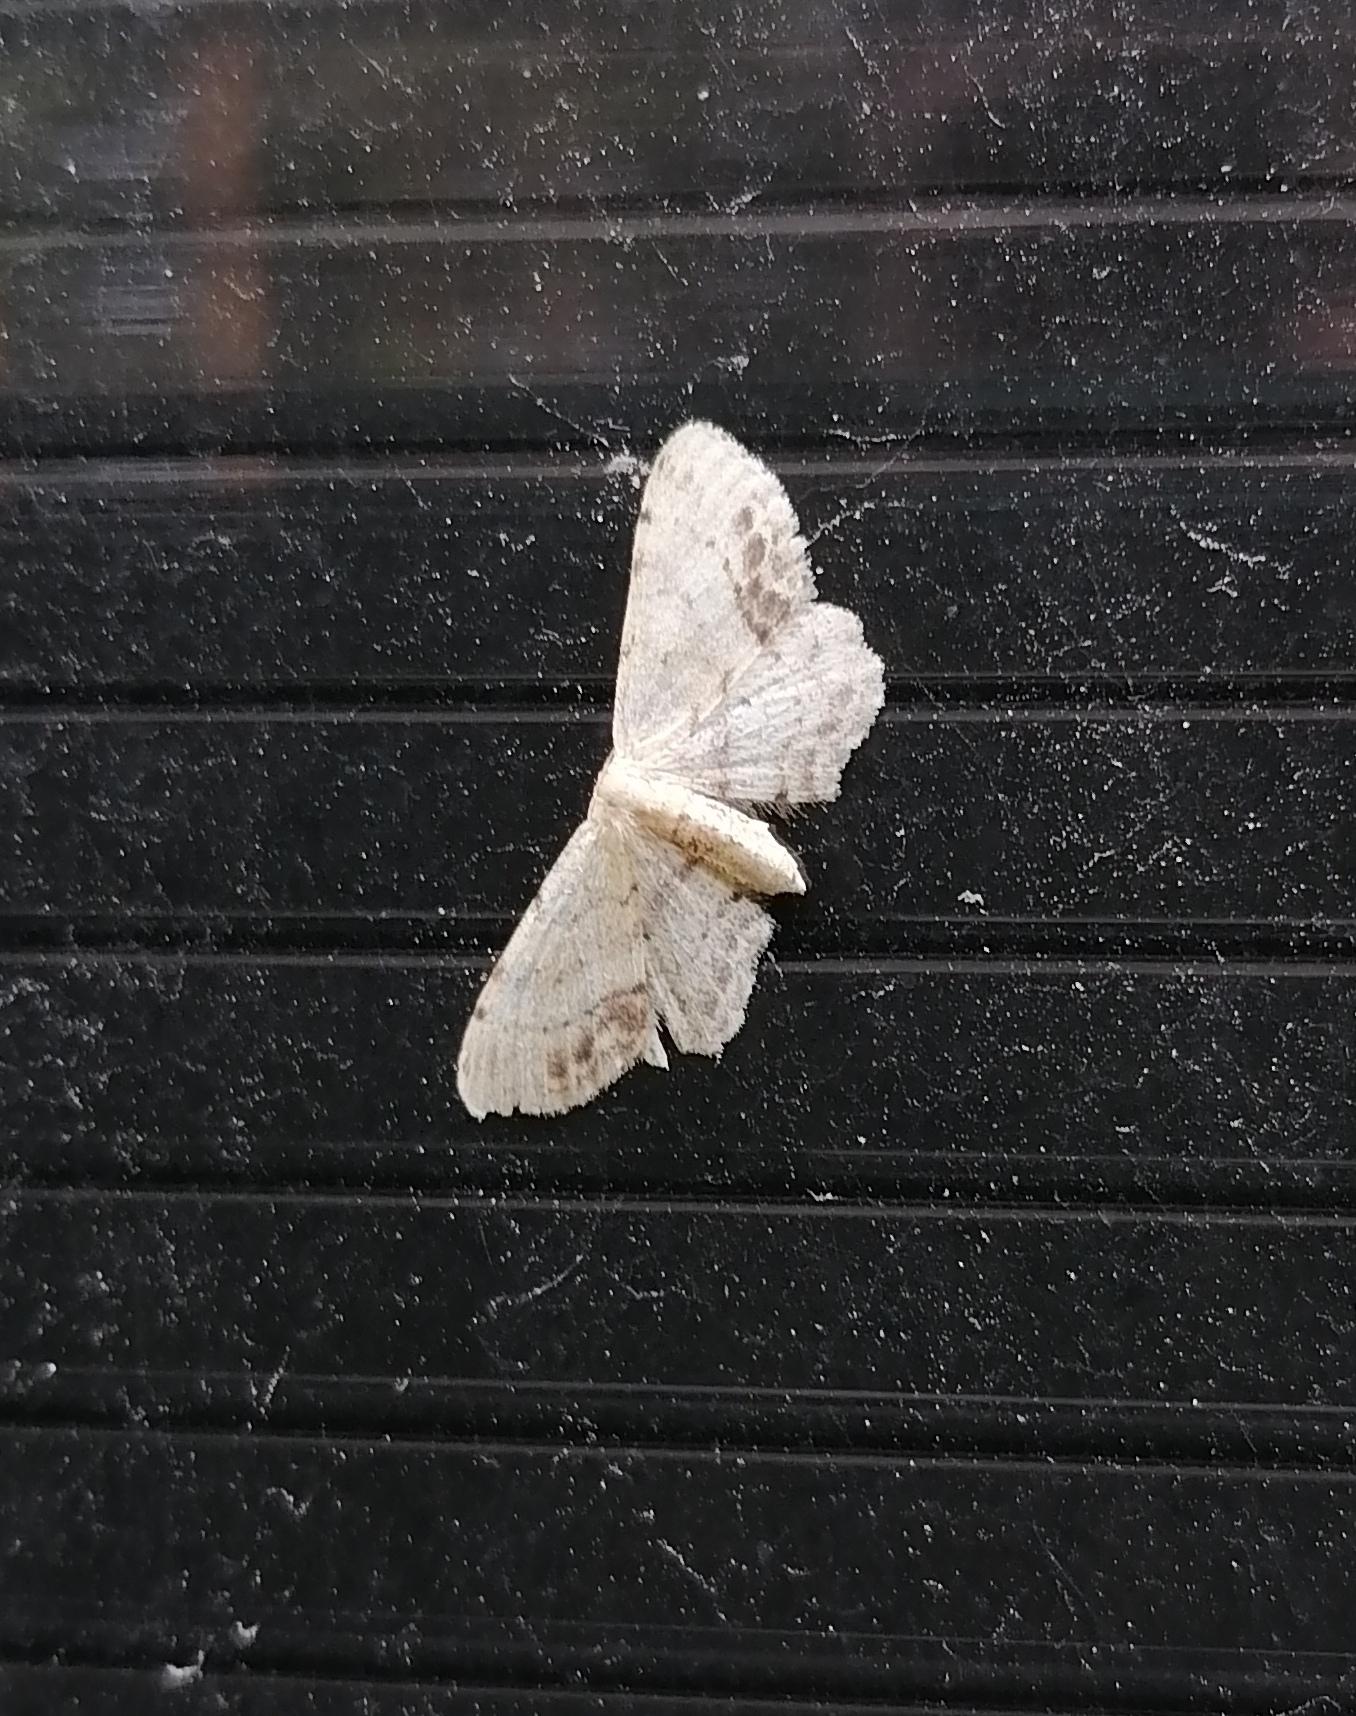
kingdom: Animalia
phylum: Arthropoda
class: Insecta
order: Lepidoptera
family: Geometridae
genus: Idaea
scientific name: Idaea dimidiata
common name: Single-dotted wave
